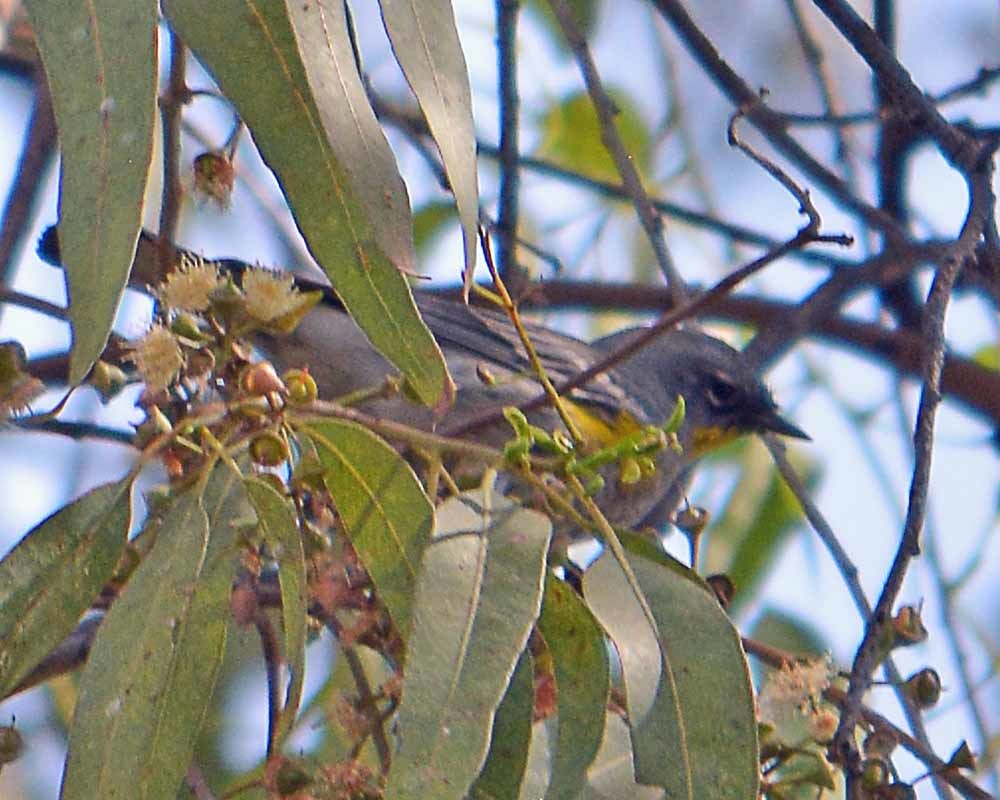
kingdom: Animalia
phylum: Chordata
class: Aves
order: Passeriformes
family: Parulidae
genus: Setophaga
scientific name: Setophaga coronata
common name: Myrtle warbler
